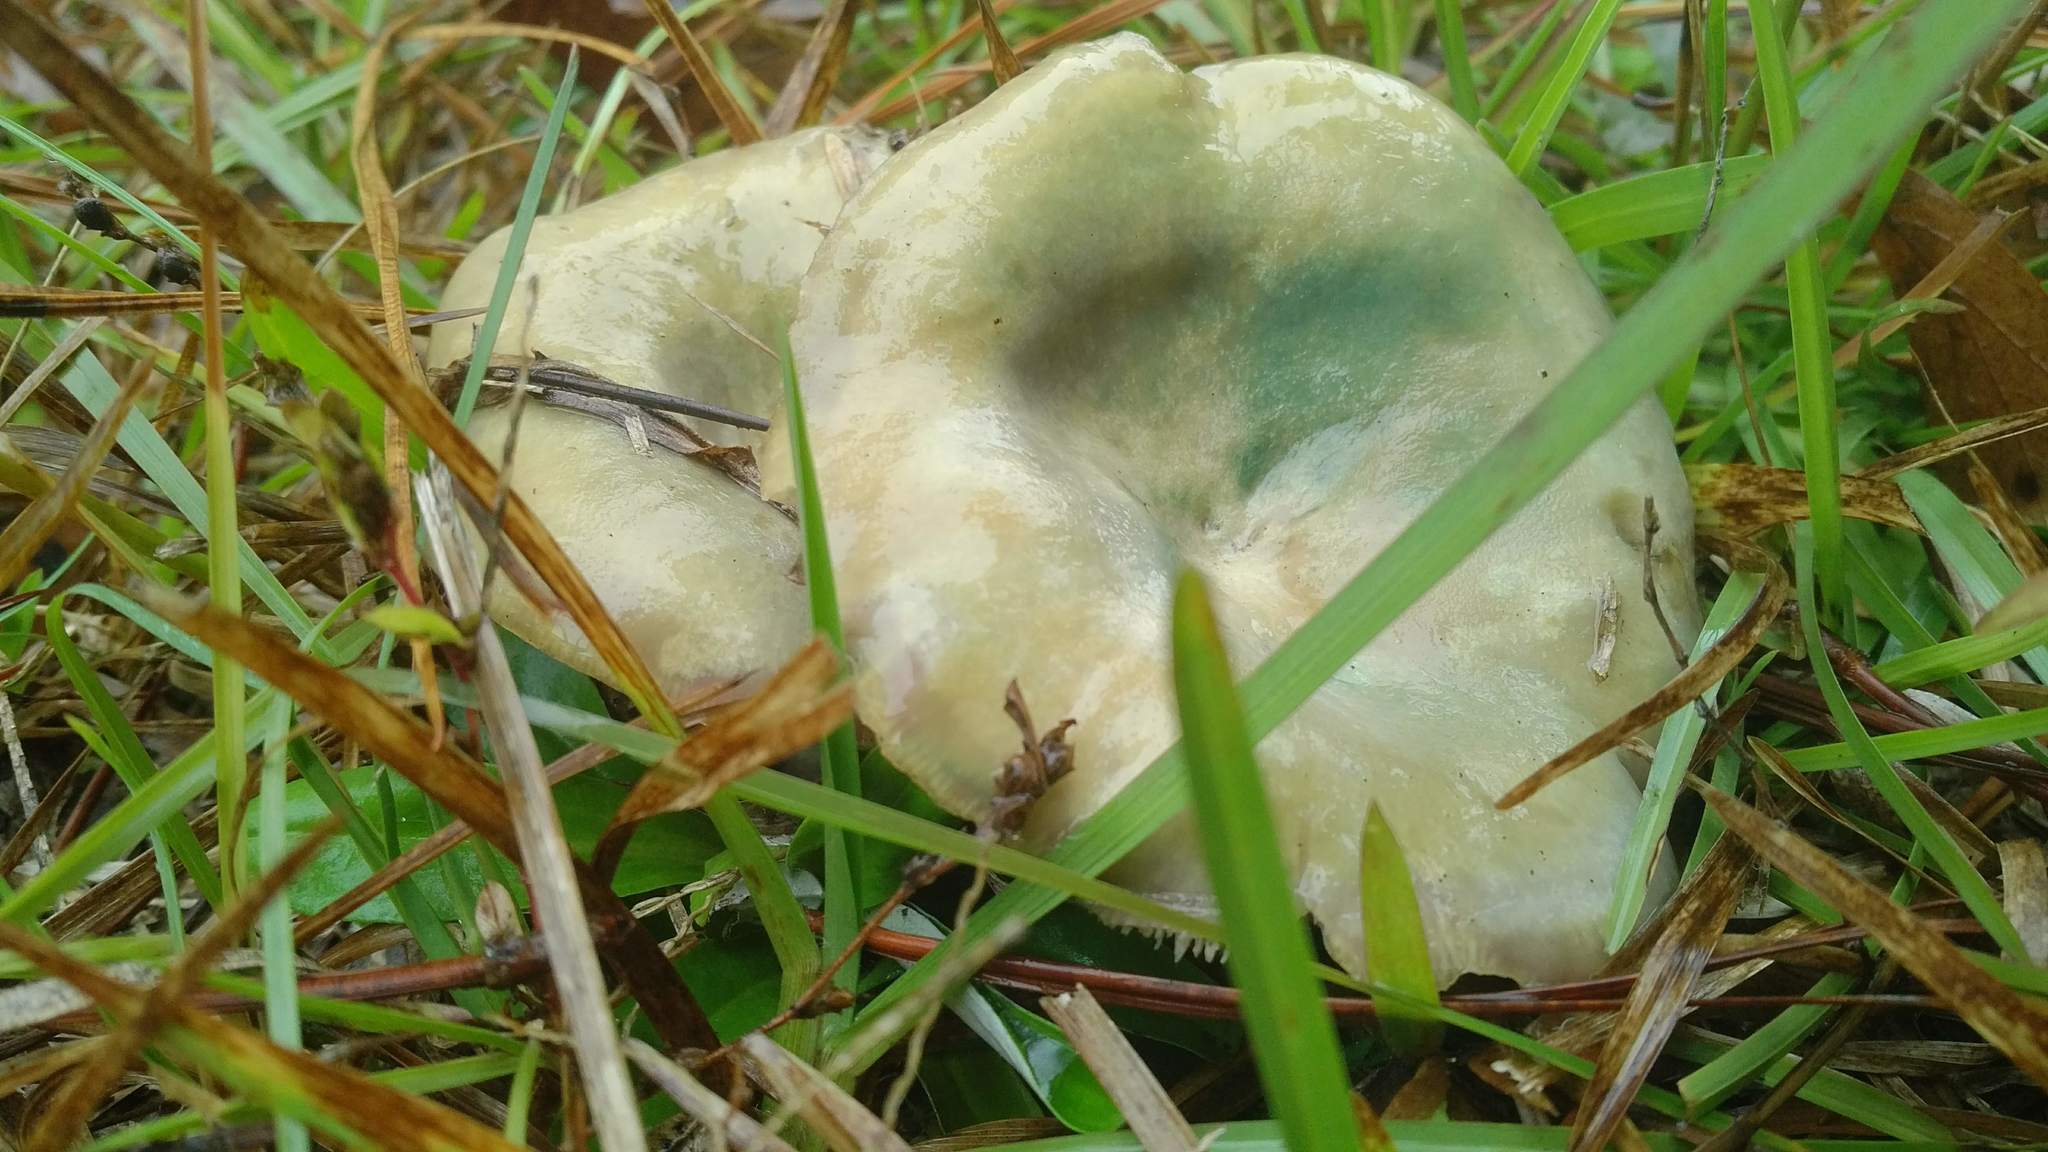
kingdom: Fungi
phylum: Basidiomycota
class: Agaricomycetes
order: Russulales
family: Russulaceae
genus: Lactarius
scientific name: Lactarius paradoxus
